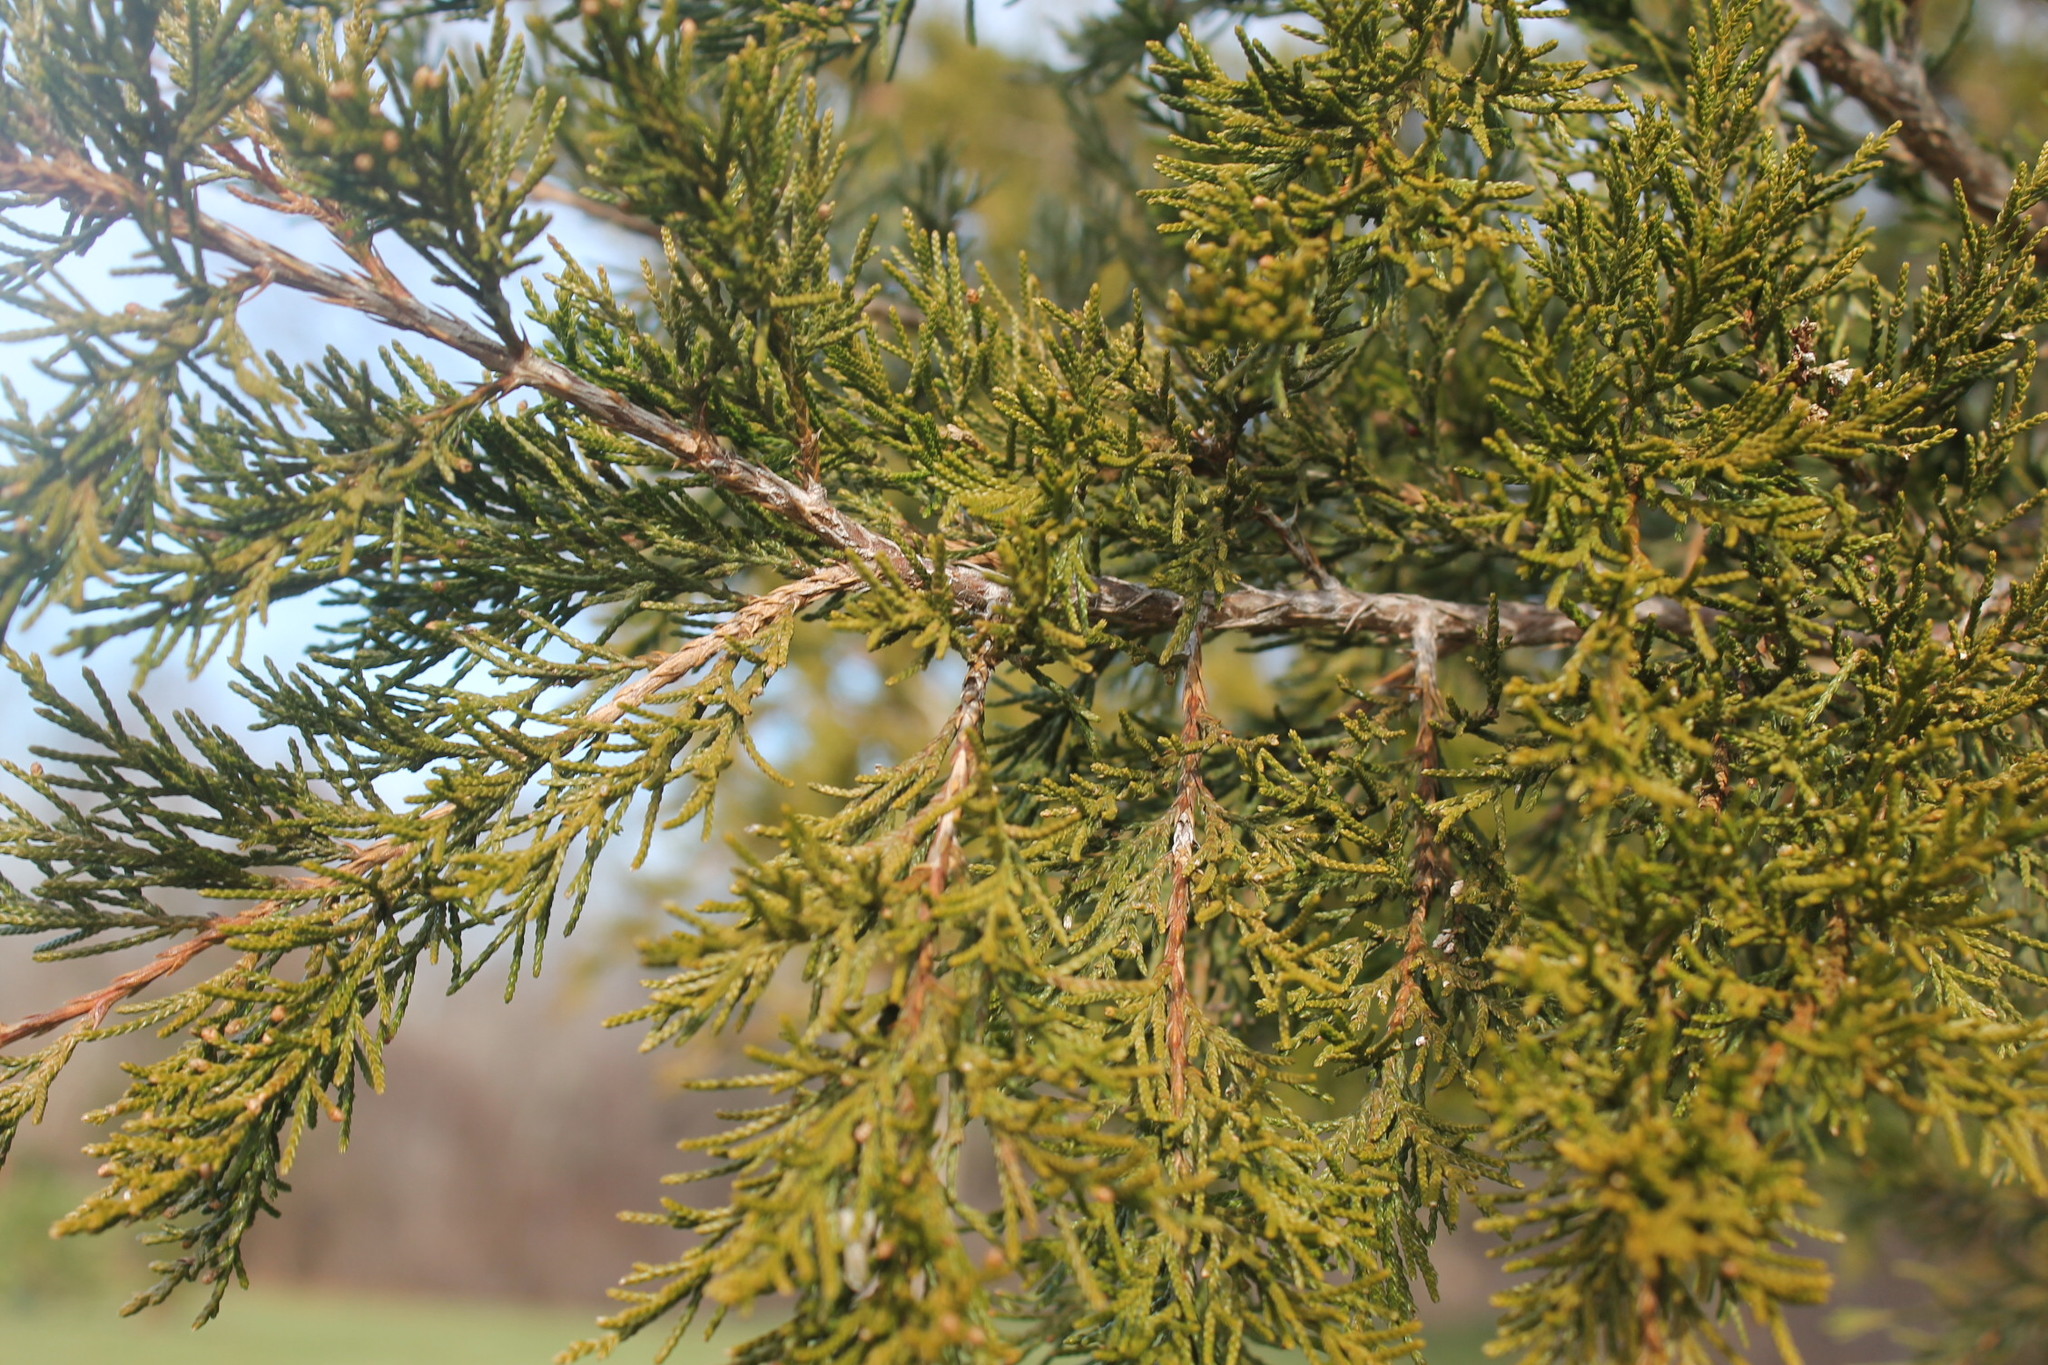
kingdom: Plantae
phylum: Tracheophyta
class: Pinopsida
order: Pinales
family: Cupressaceae
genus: Juniperus
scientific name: Juniperus virginiana
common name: Red juniper
